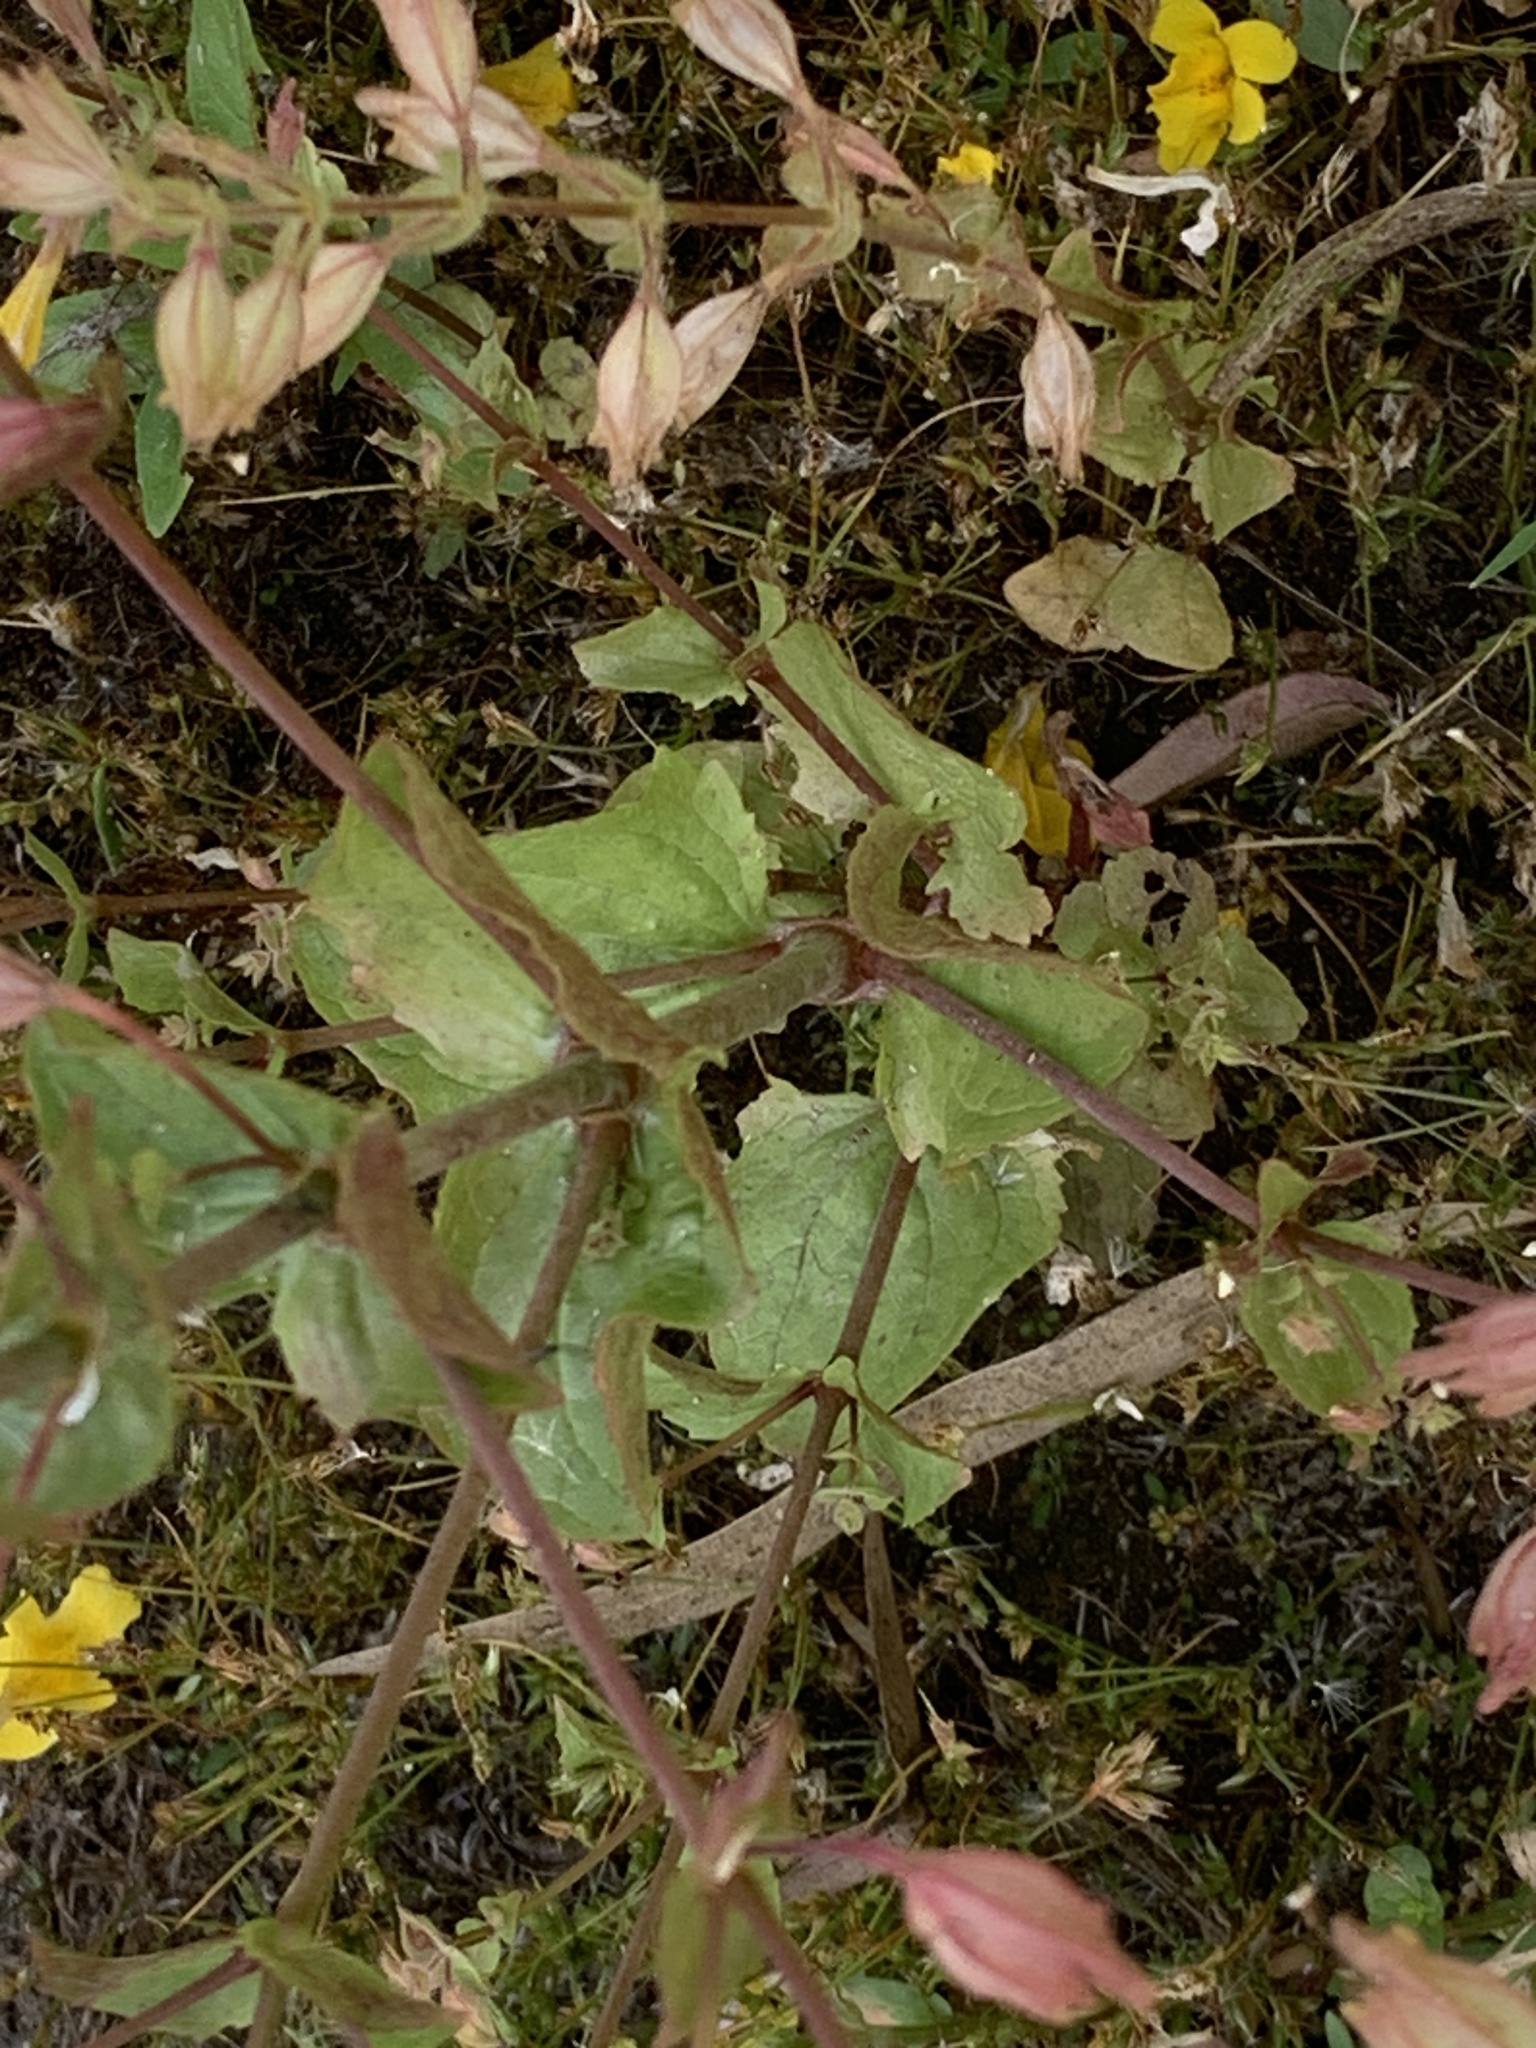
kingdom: Plantae
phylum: Tracheophyta
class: Magnoliopsida
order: Lamiales
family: Phrymaceae
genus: Erythranthe
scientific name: Erythranthe guttata
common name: Monkeyflower
